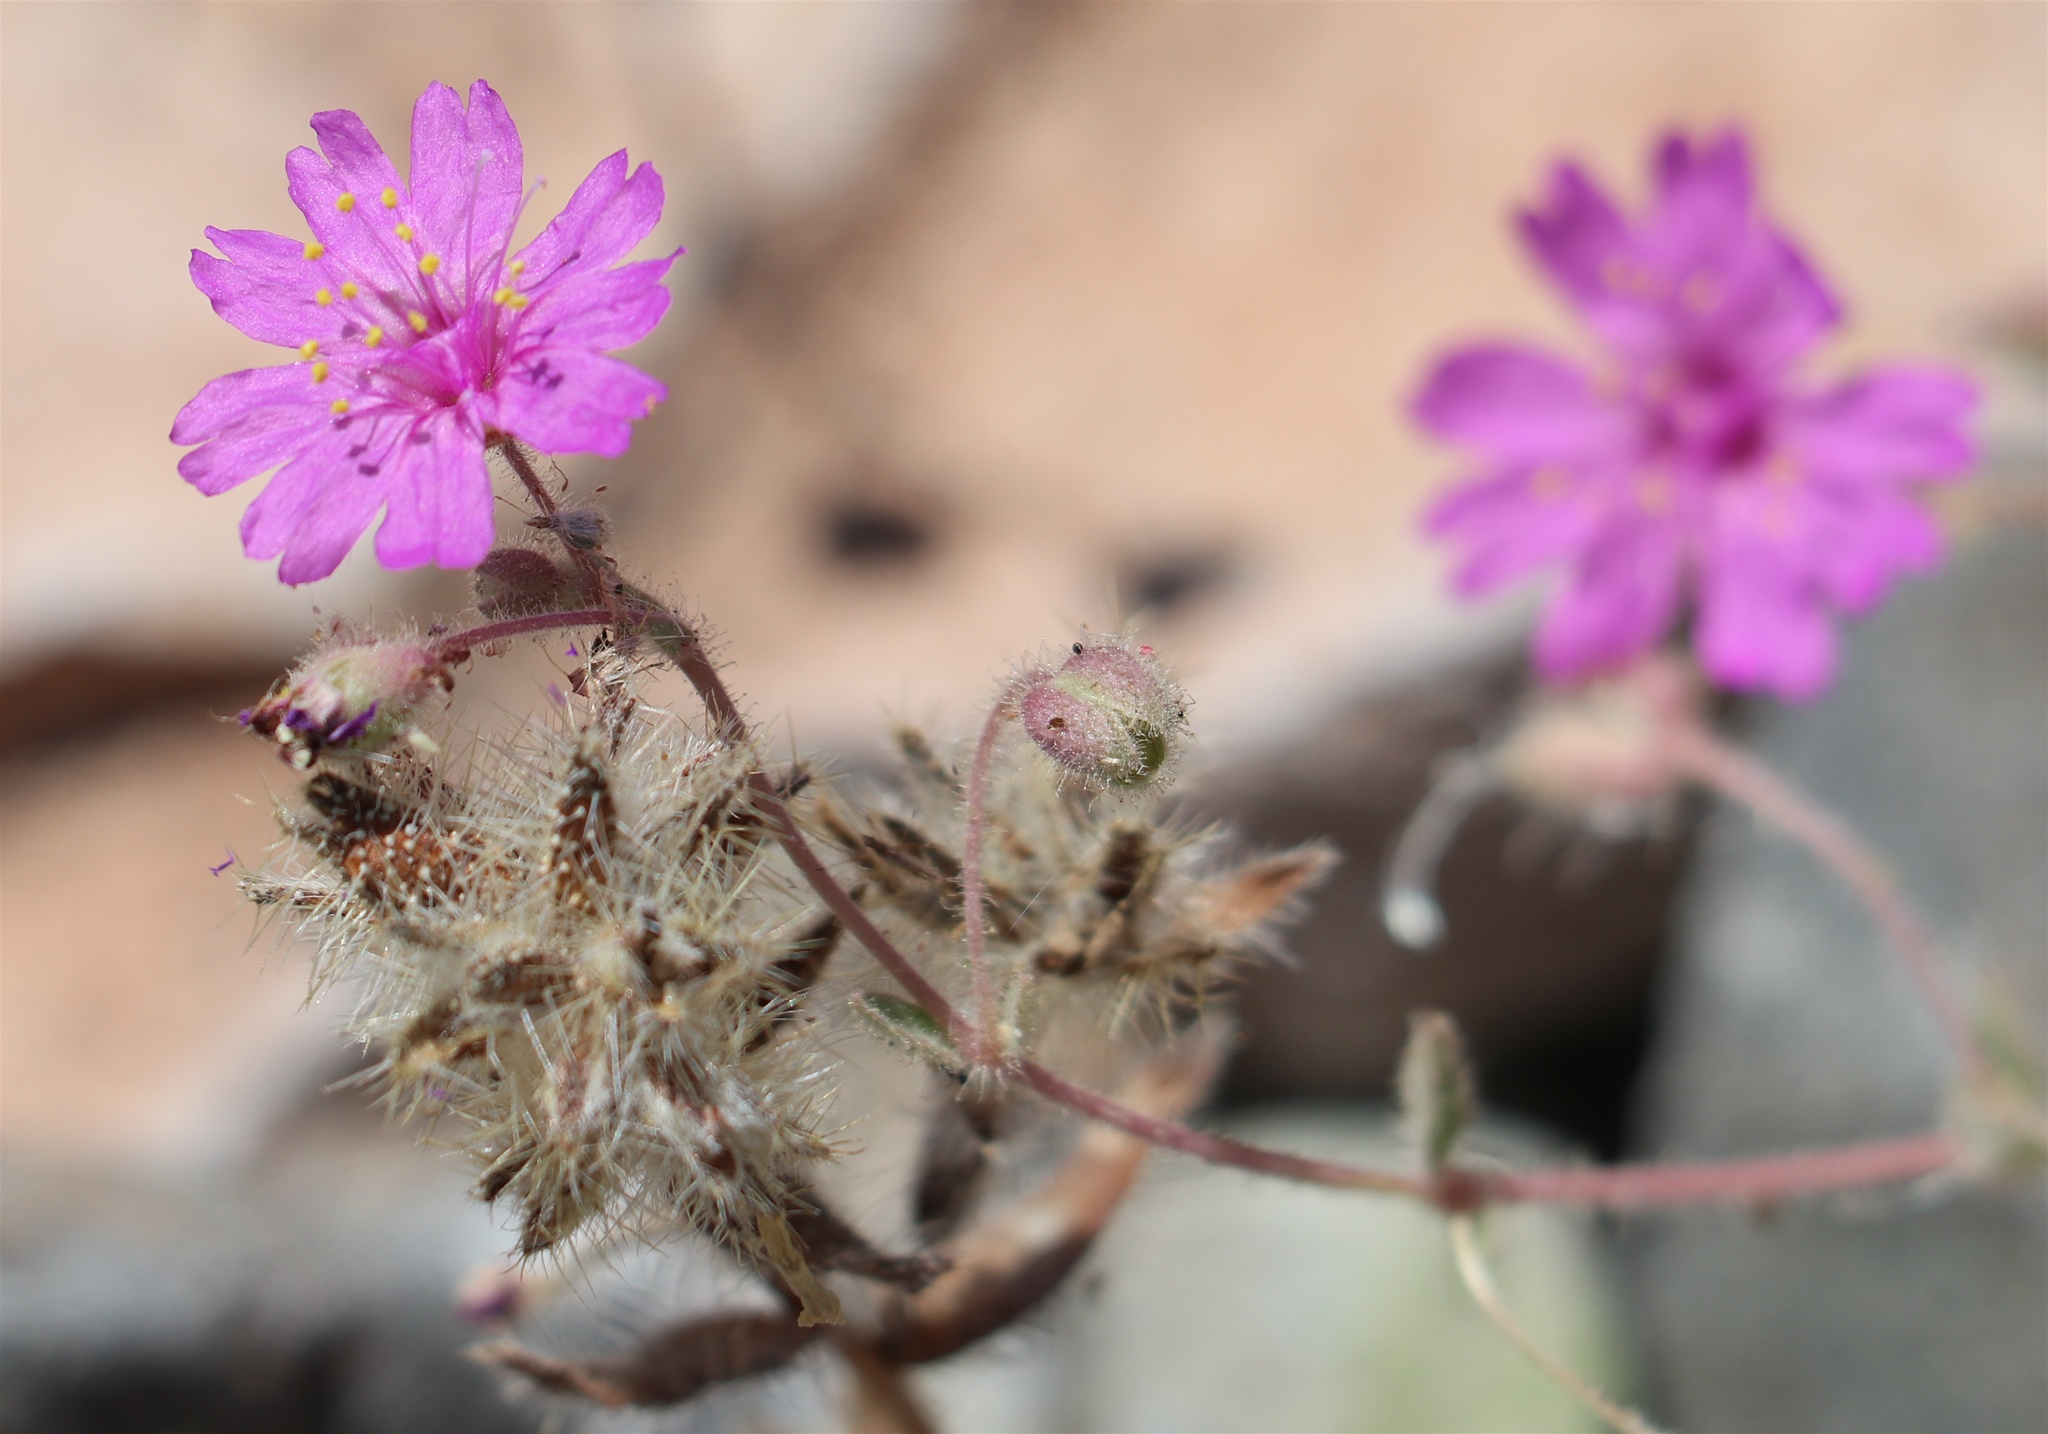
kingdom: Plantae
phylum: Tracheophyta
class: Magnoliopsida
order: Caryophyllales
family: Nyctaginaceae
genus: Allionia
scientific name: Allionia incarnata
